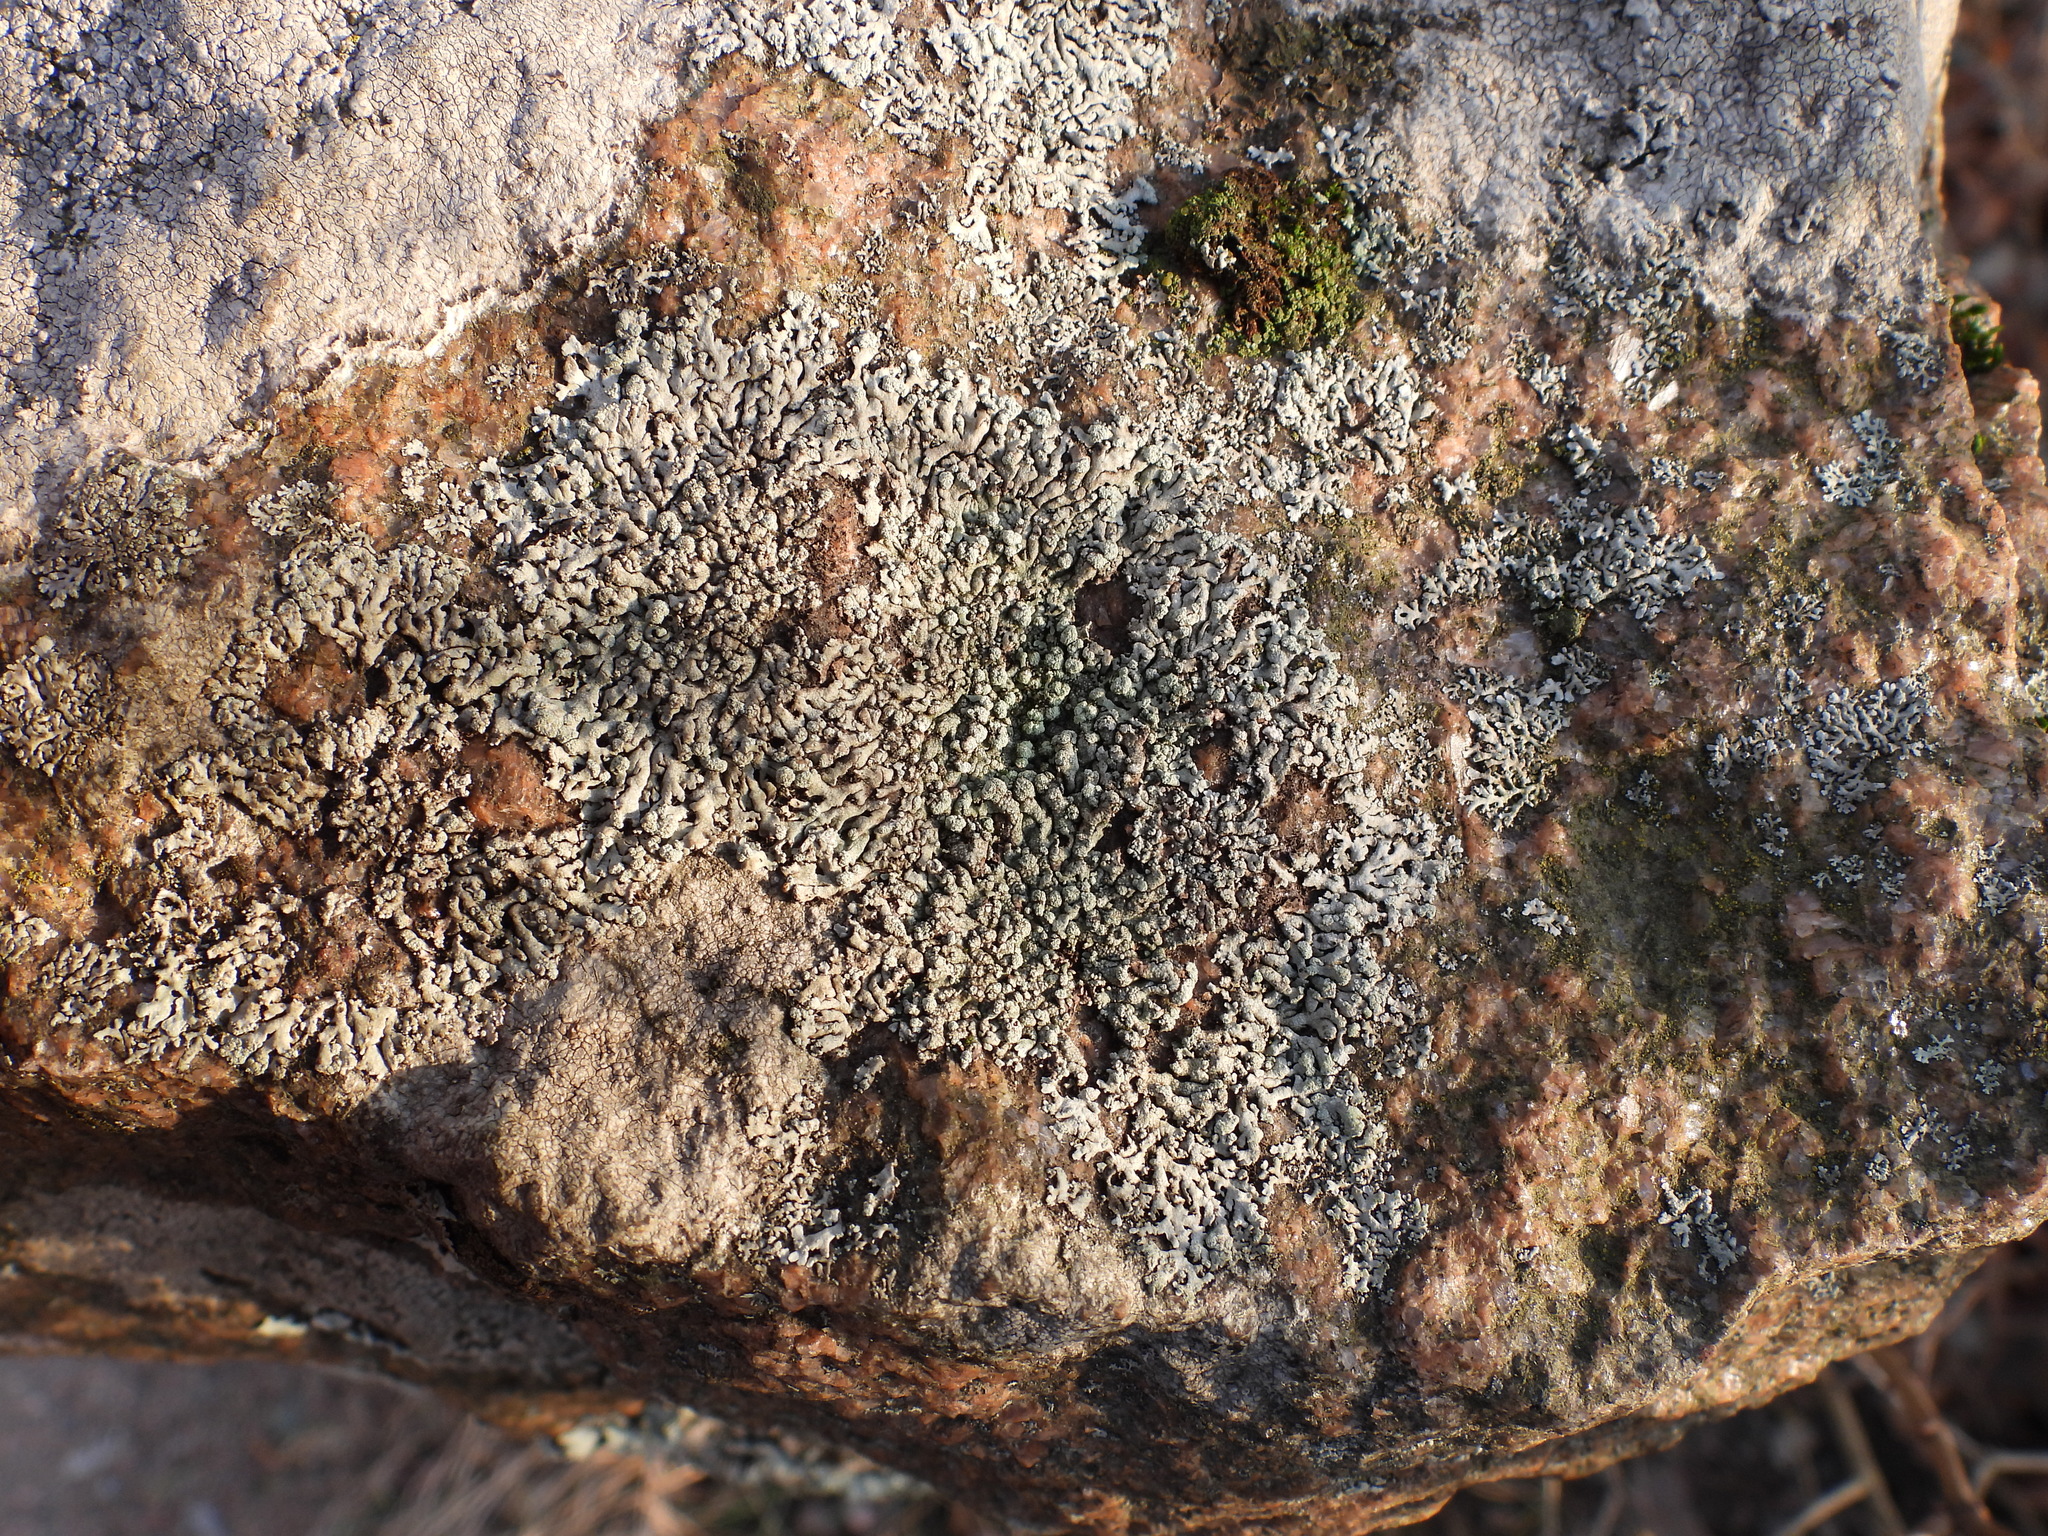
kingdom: Fungi
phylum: Ascomycota
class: Lecanoromycetes
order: Caliciales
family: Physciaceae
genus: Physcia
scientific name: Physcia caesia
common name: Blue-gray rosette lichen
